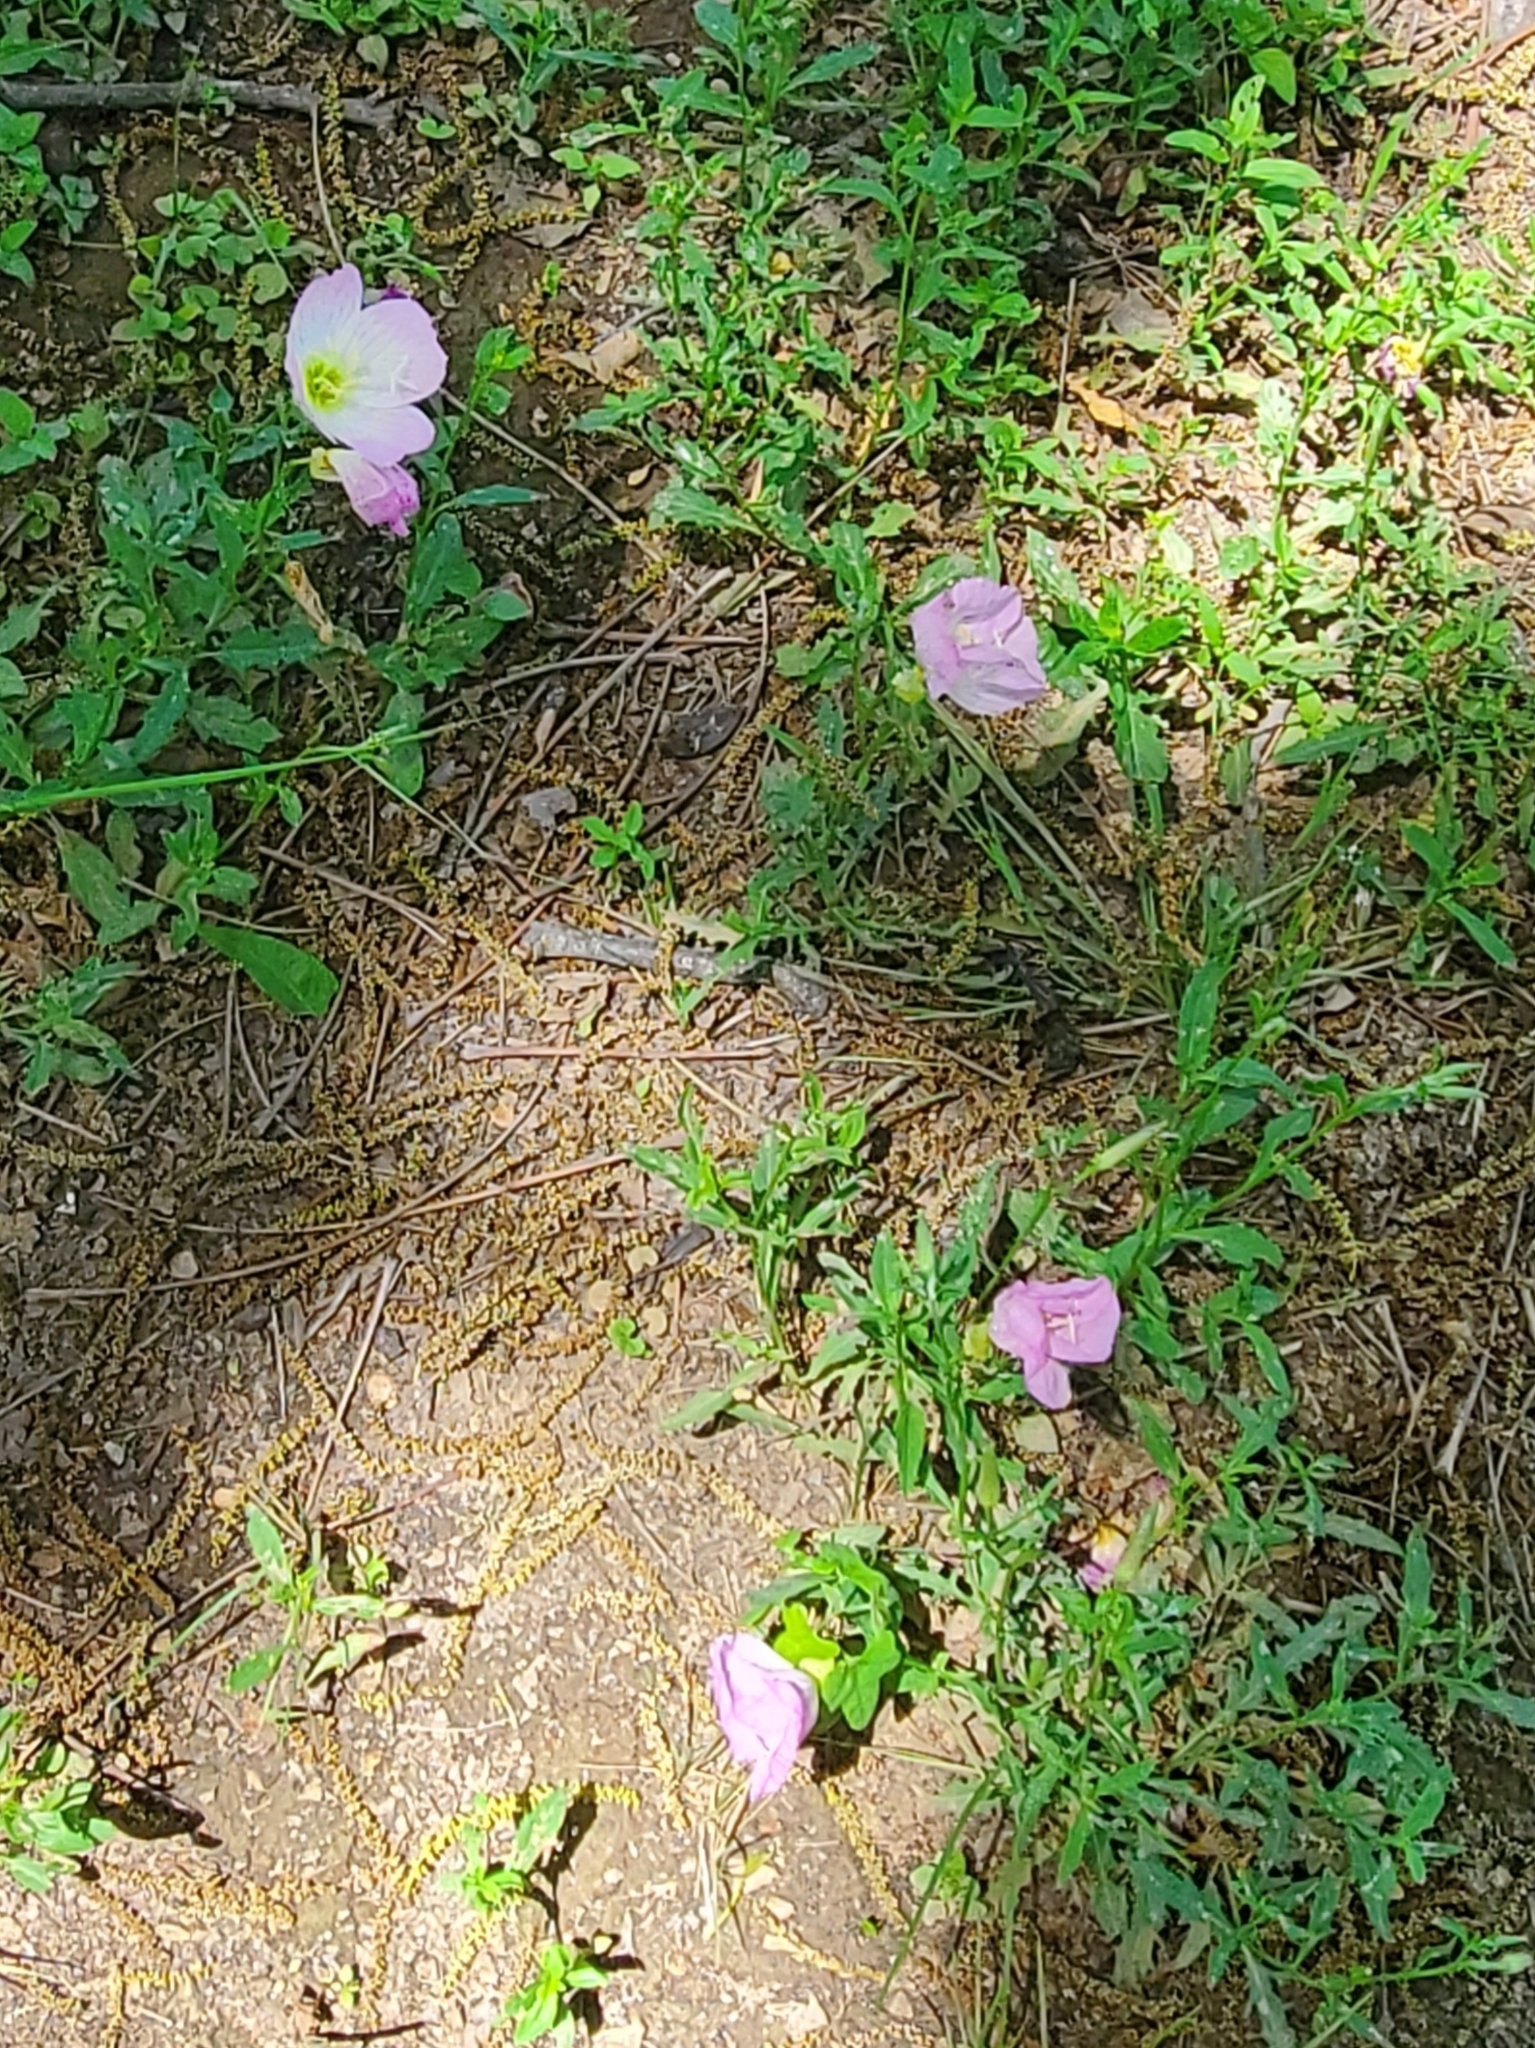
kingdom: Plantae
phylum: Tracheophyta
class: Magnoliopsida
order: Myrtales
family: Onagraceae
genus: Oenothera
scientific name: Oenothera speciosa
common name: White evening-primrose
